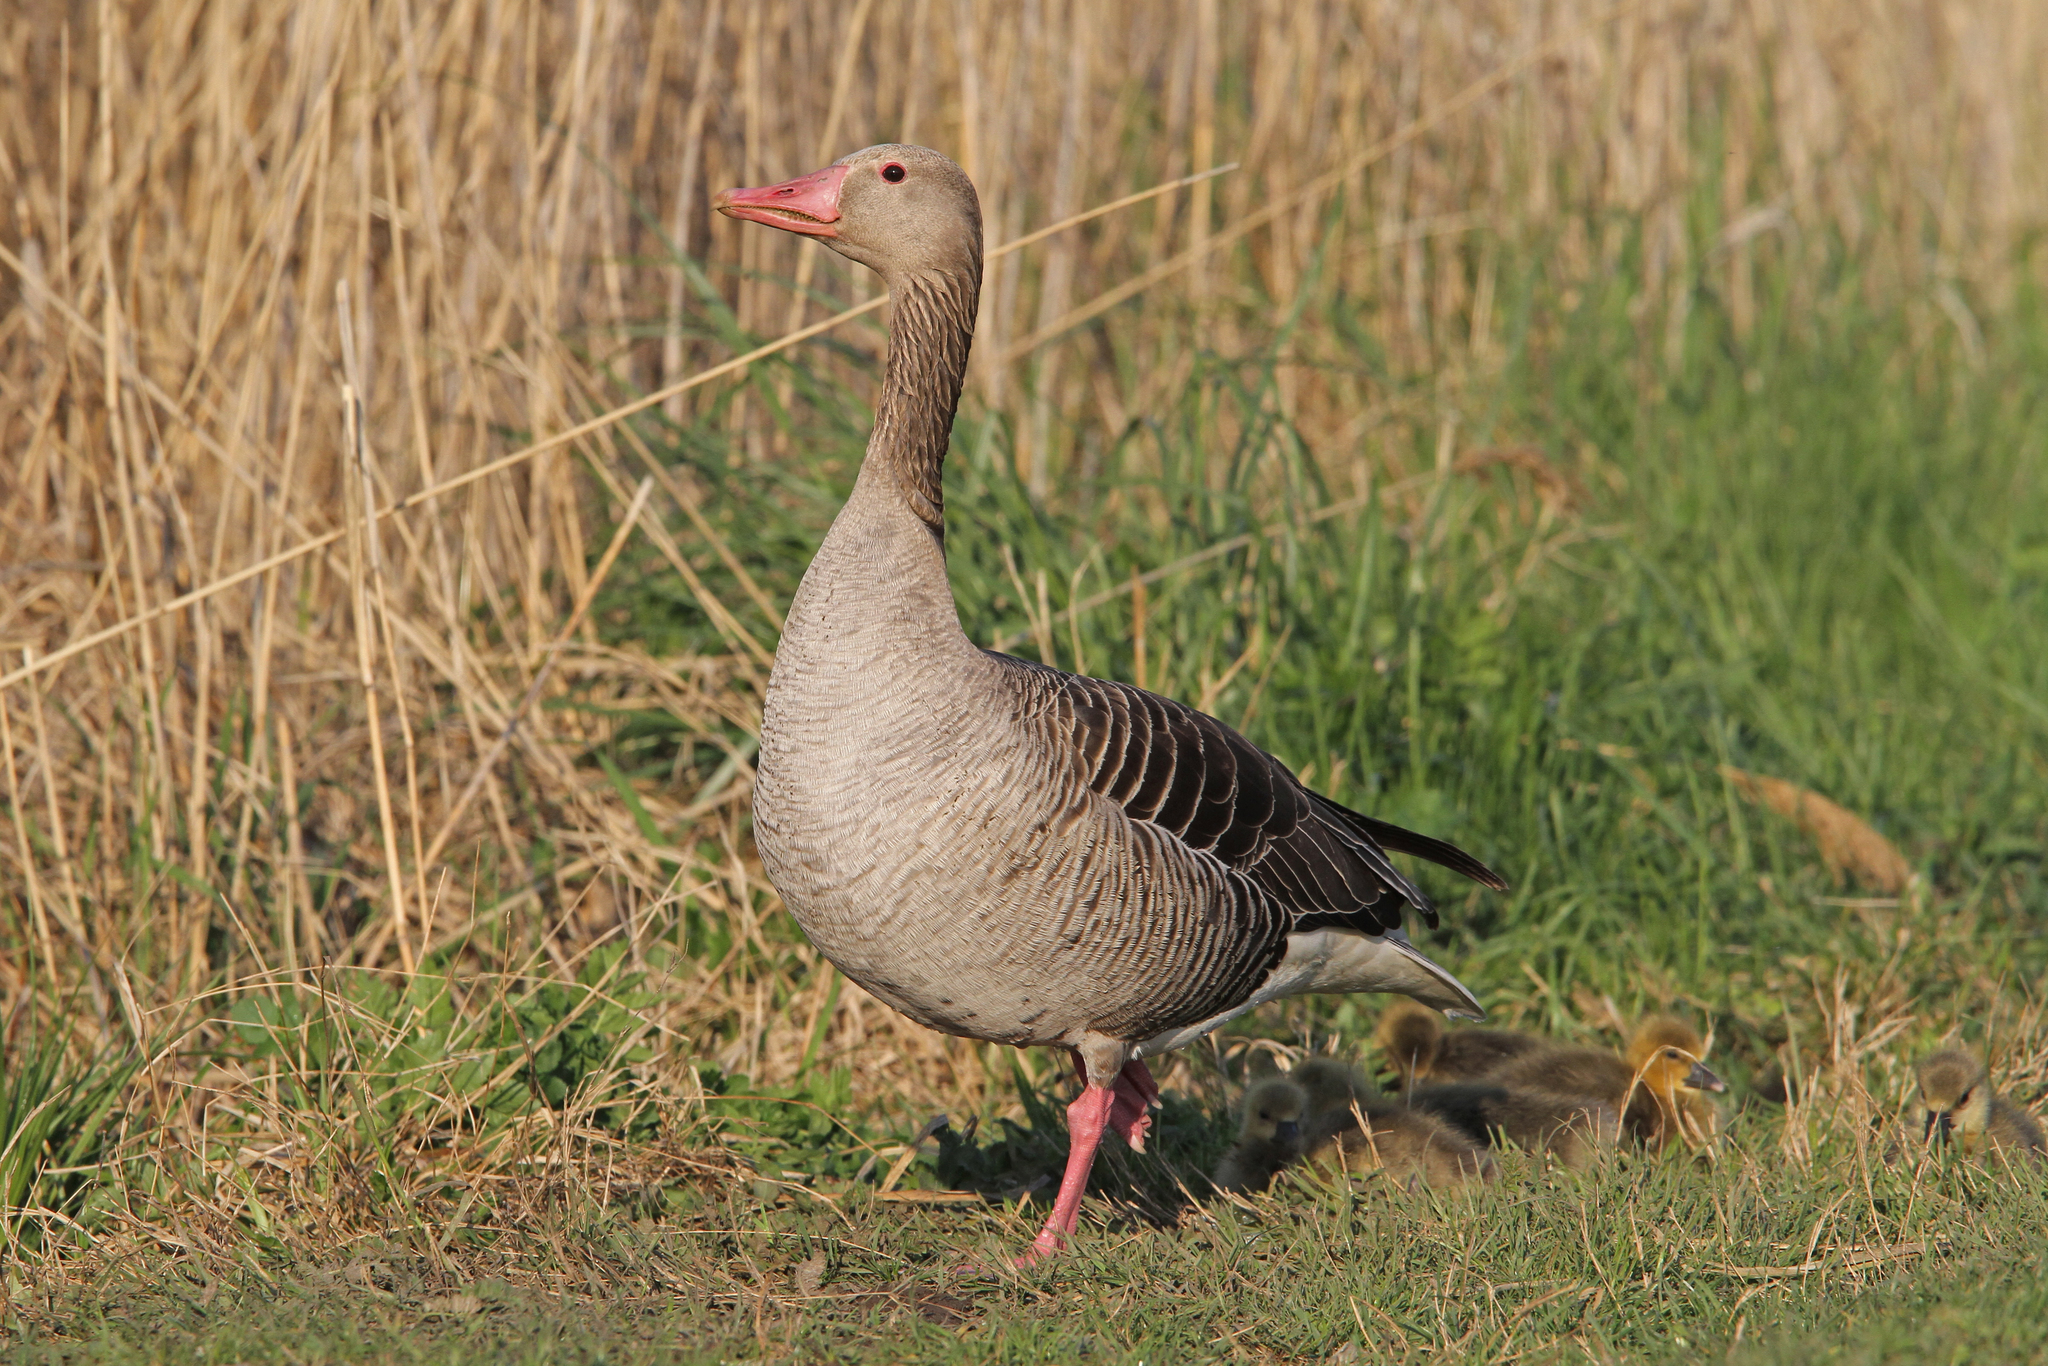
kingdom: Animalia
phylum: Chordata
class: Aves
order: Anseriformes
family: Anatidae
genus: Anser
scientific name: Anser anser
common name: Greylag goose
